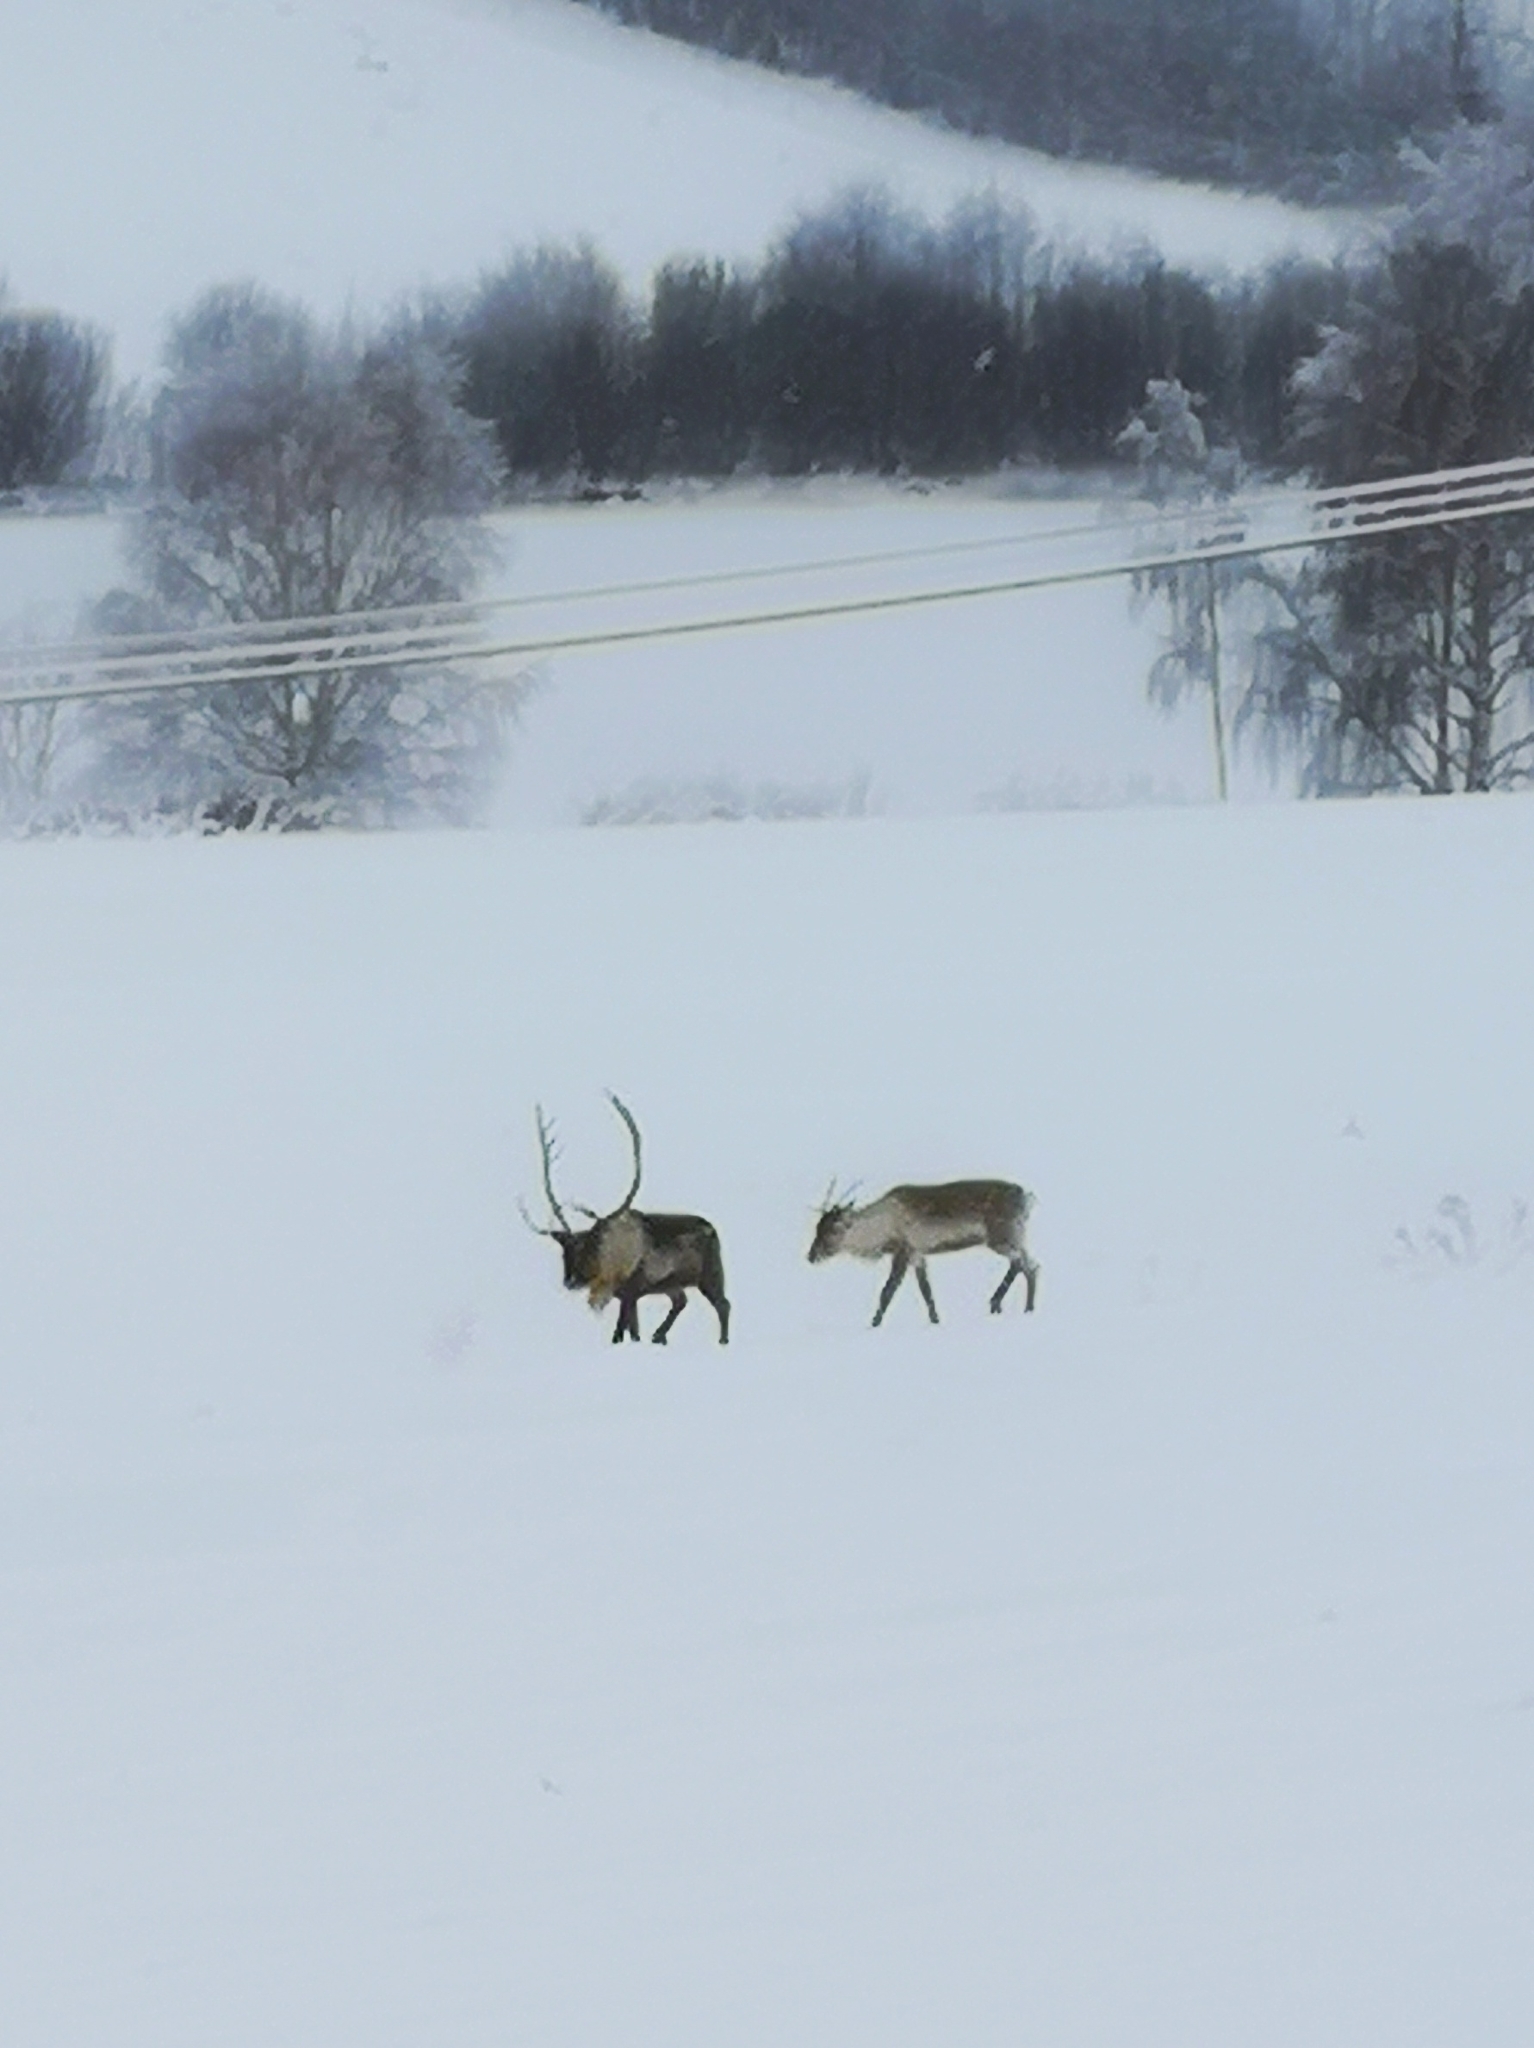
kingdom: Animalia
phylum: Chordata
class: Mammalia
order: Artiodactyla
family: Cervidae
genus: Rangifer
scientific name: Rangifer tarandus
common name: Reindeer
